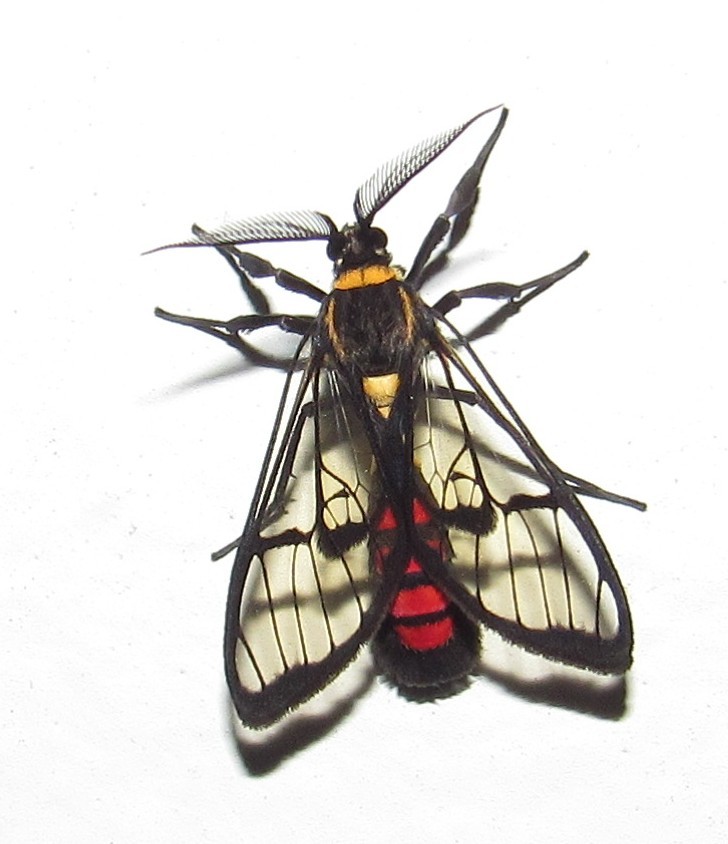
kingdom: Animalia
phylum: Arthropoda
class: Insecta
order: Lepidoptera
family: Erebidae
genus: Argyroeides
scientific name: Argyroeides sanguinea
